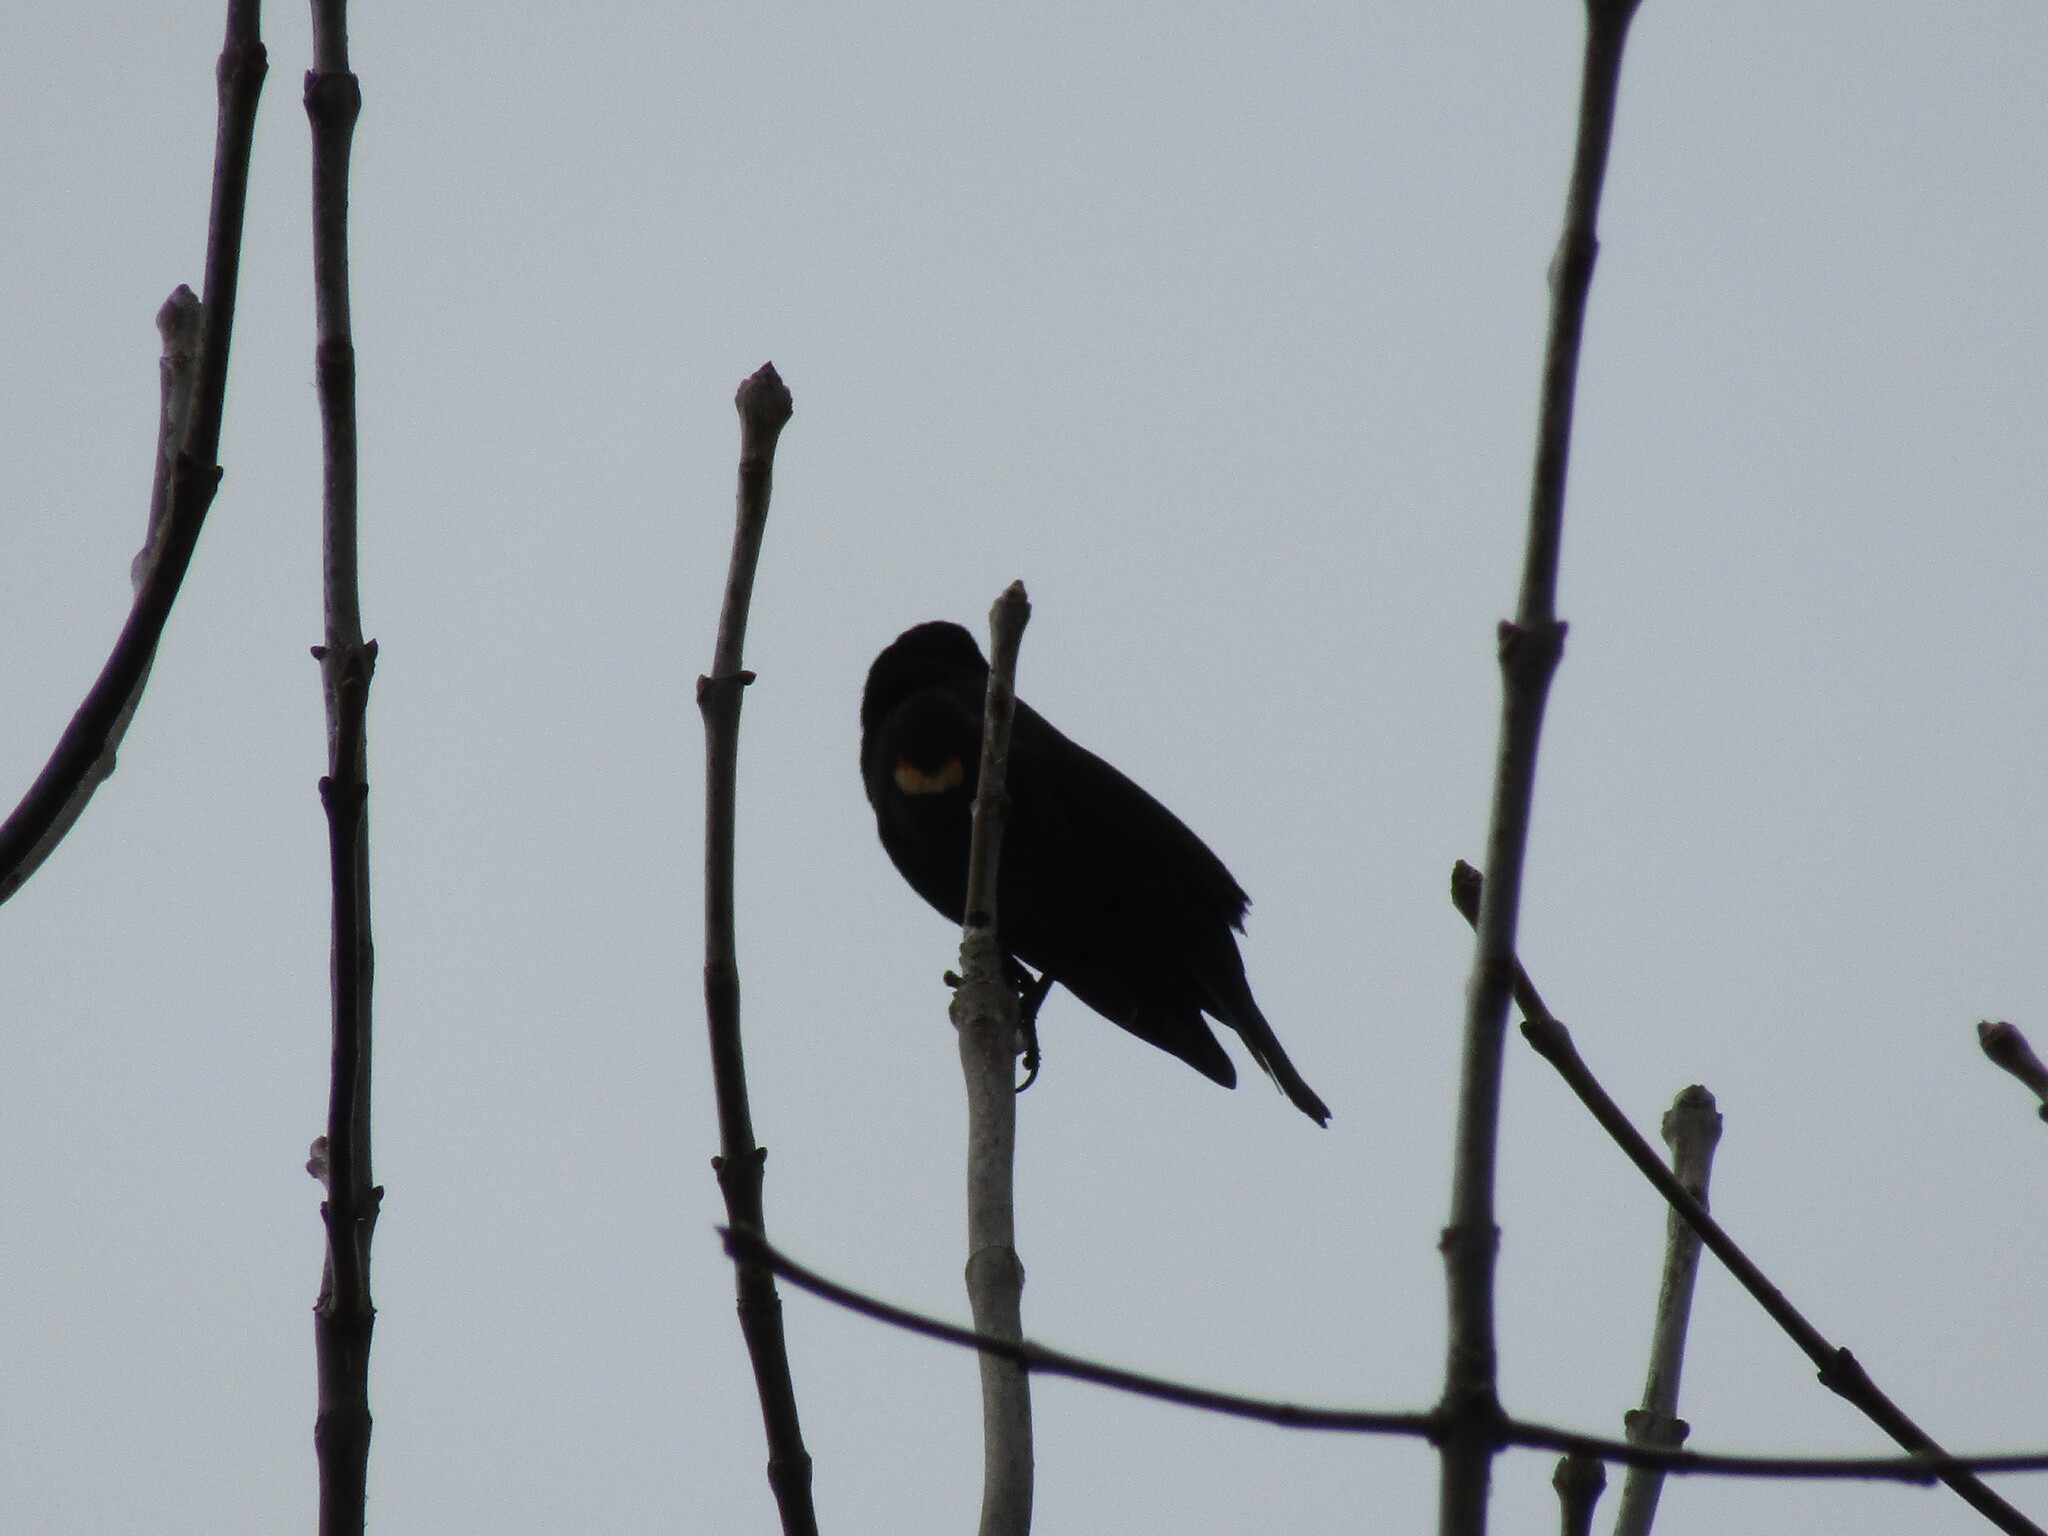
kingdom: Animalia
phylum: Chordata
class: Aves
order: Passeriformes
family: Icteridae
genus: Agelaius
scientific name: Agelaius phoeniceus
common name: Red-winged blackbird
